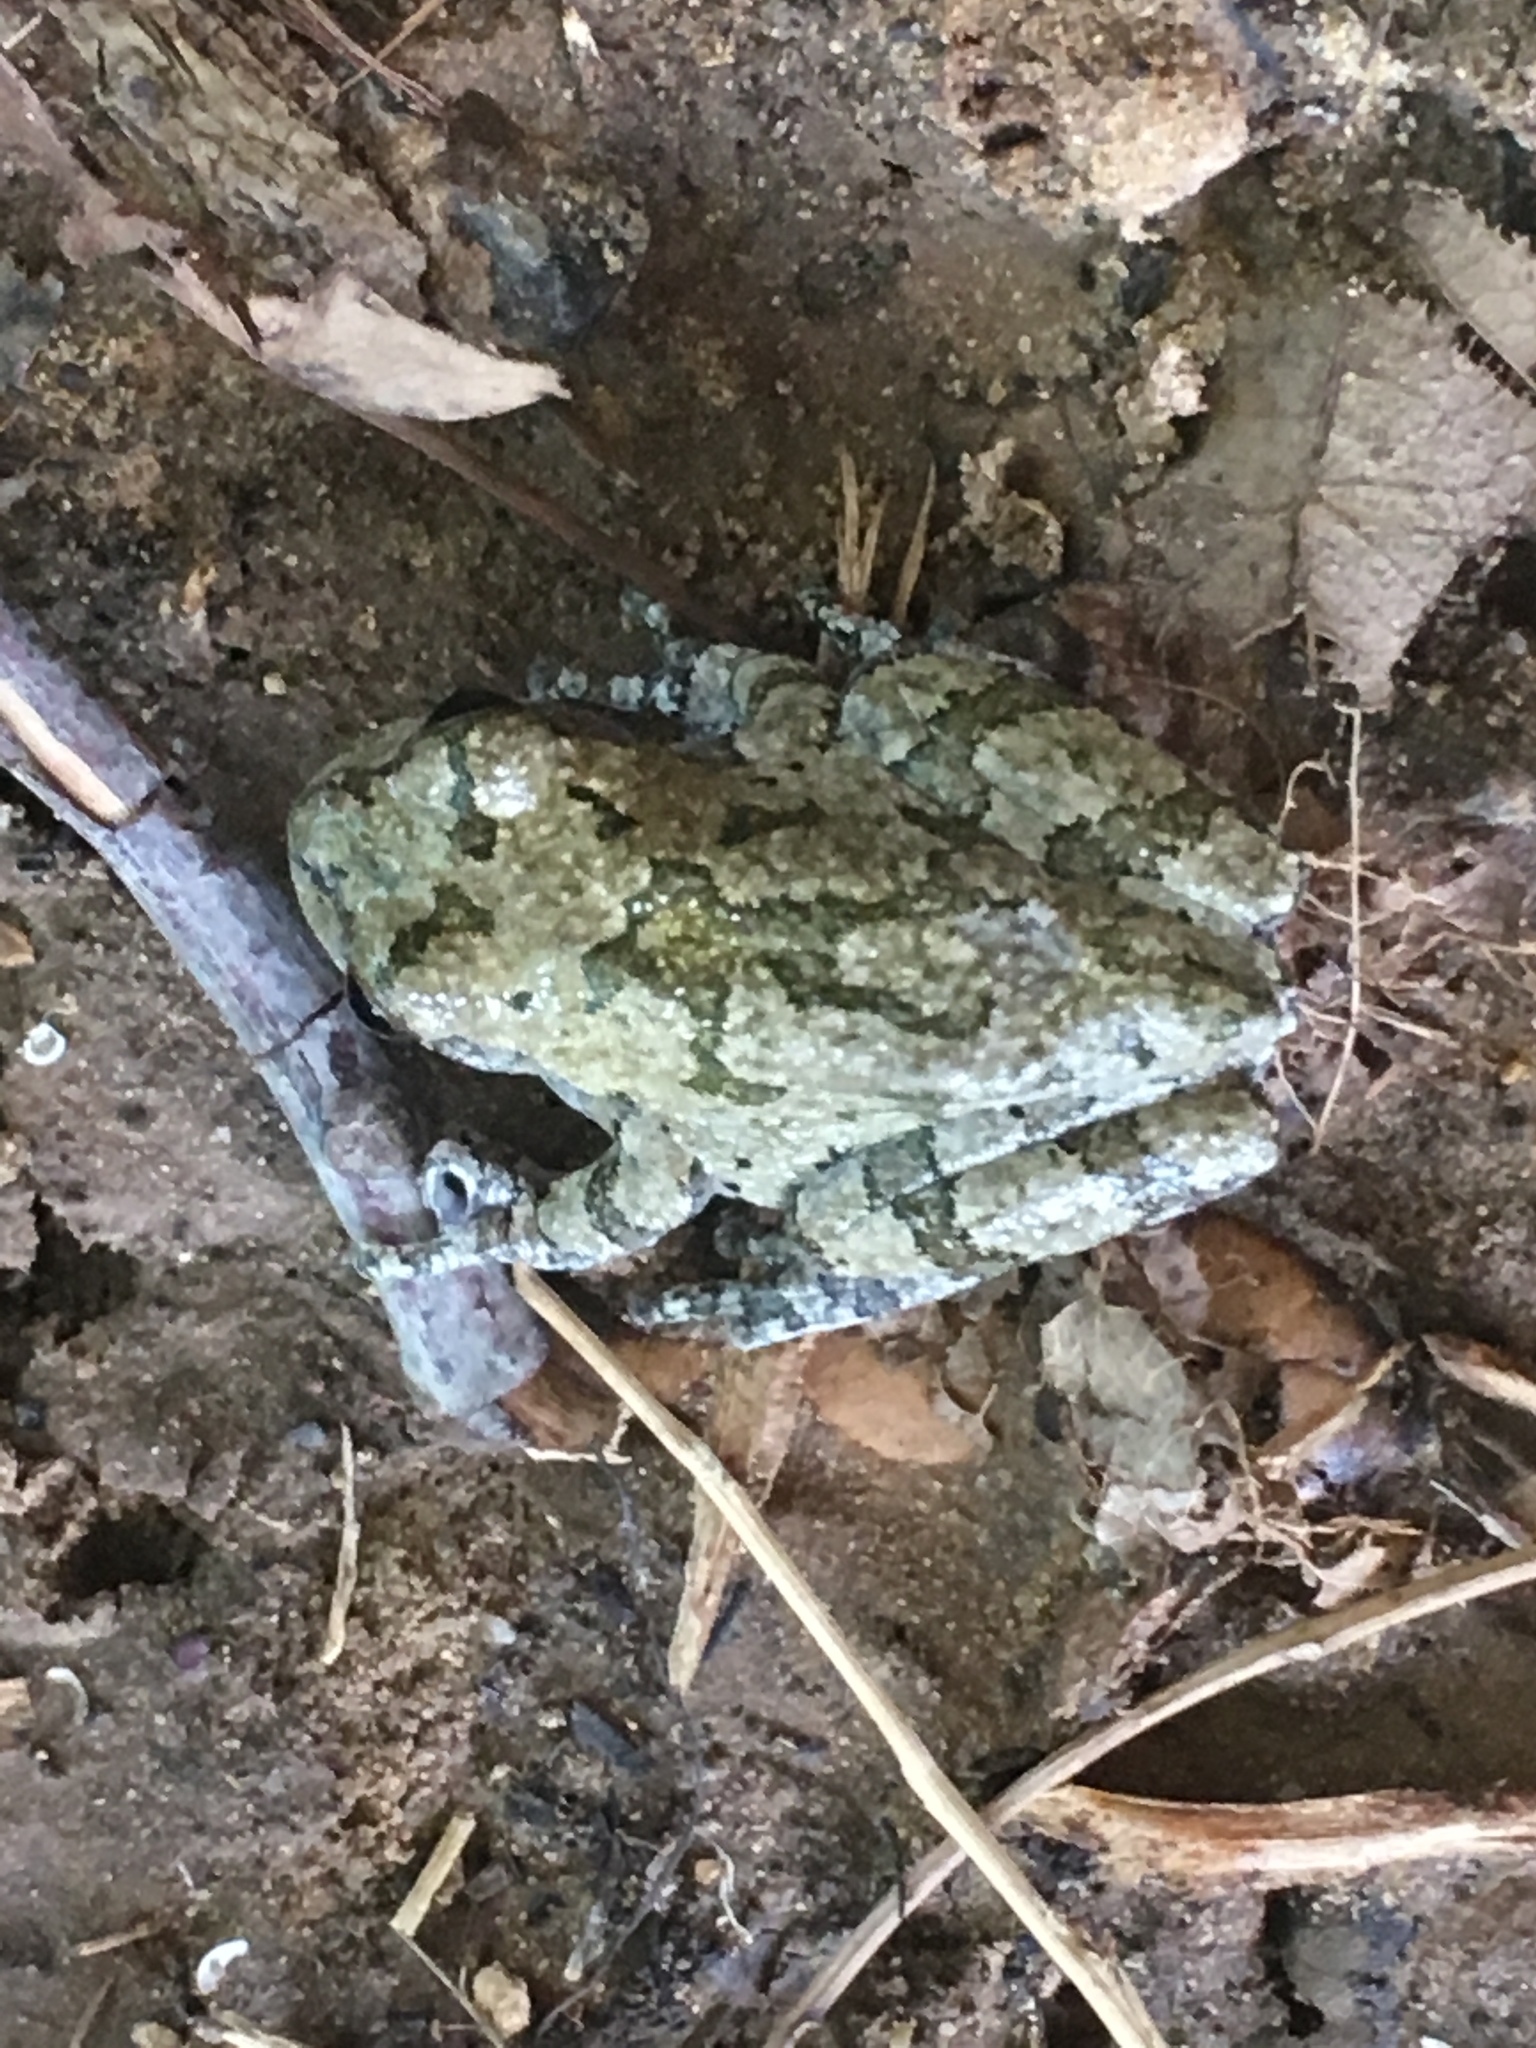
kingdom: Animalia
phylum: Chordata
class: Amphibia
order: Anura
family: Hylidae
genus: Dryophytes
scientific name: Dryophytes chrysoscelis
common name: Cope's gray treefrog
